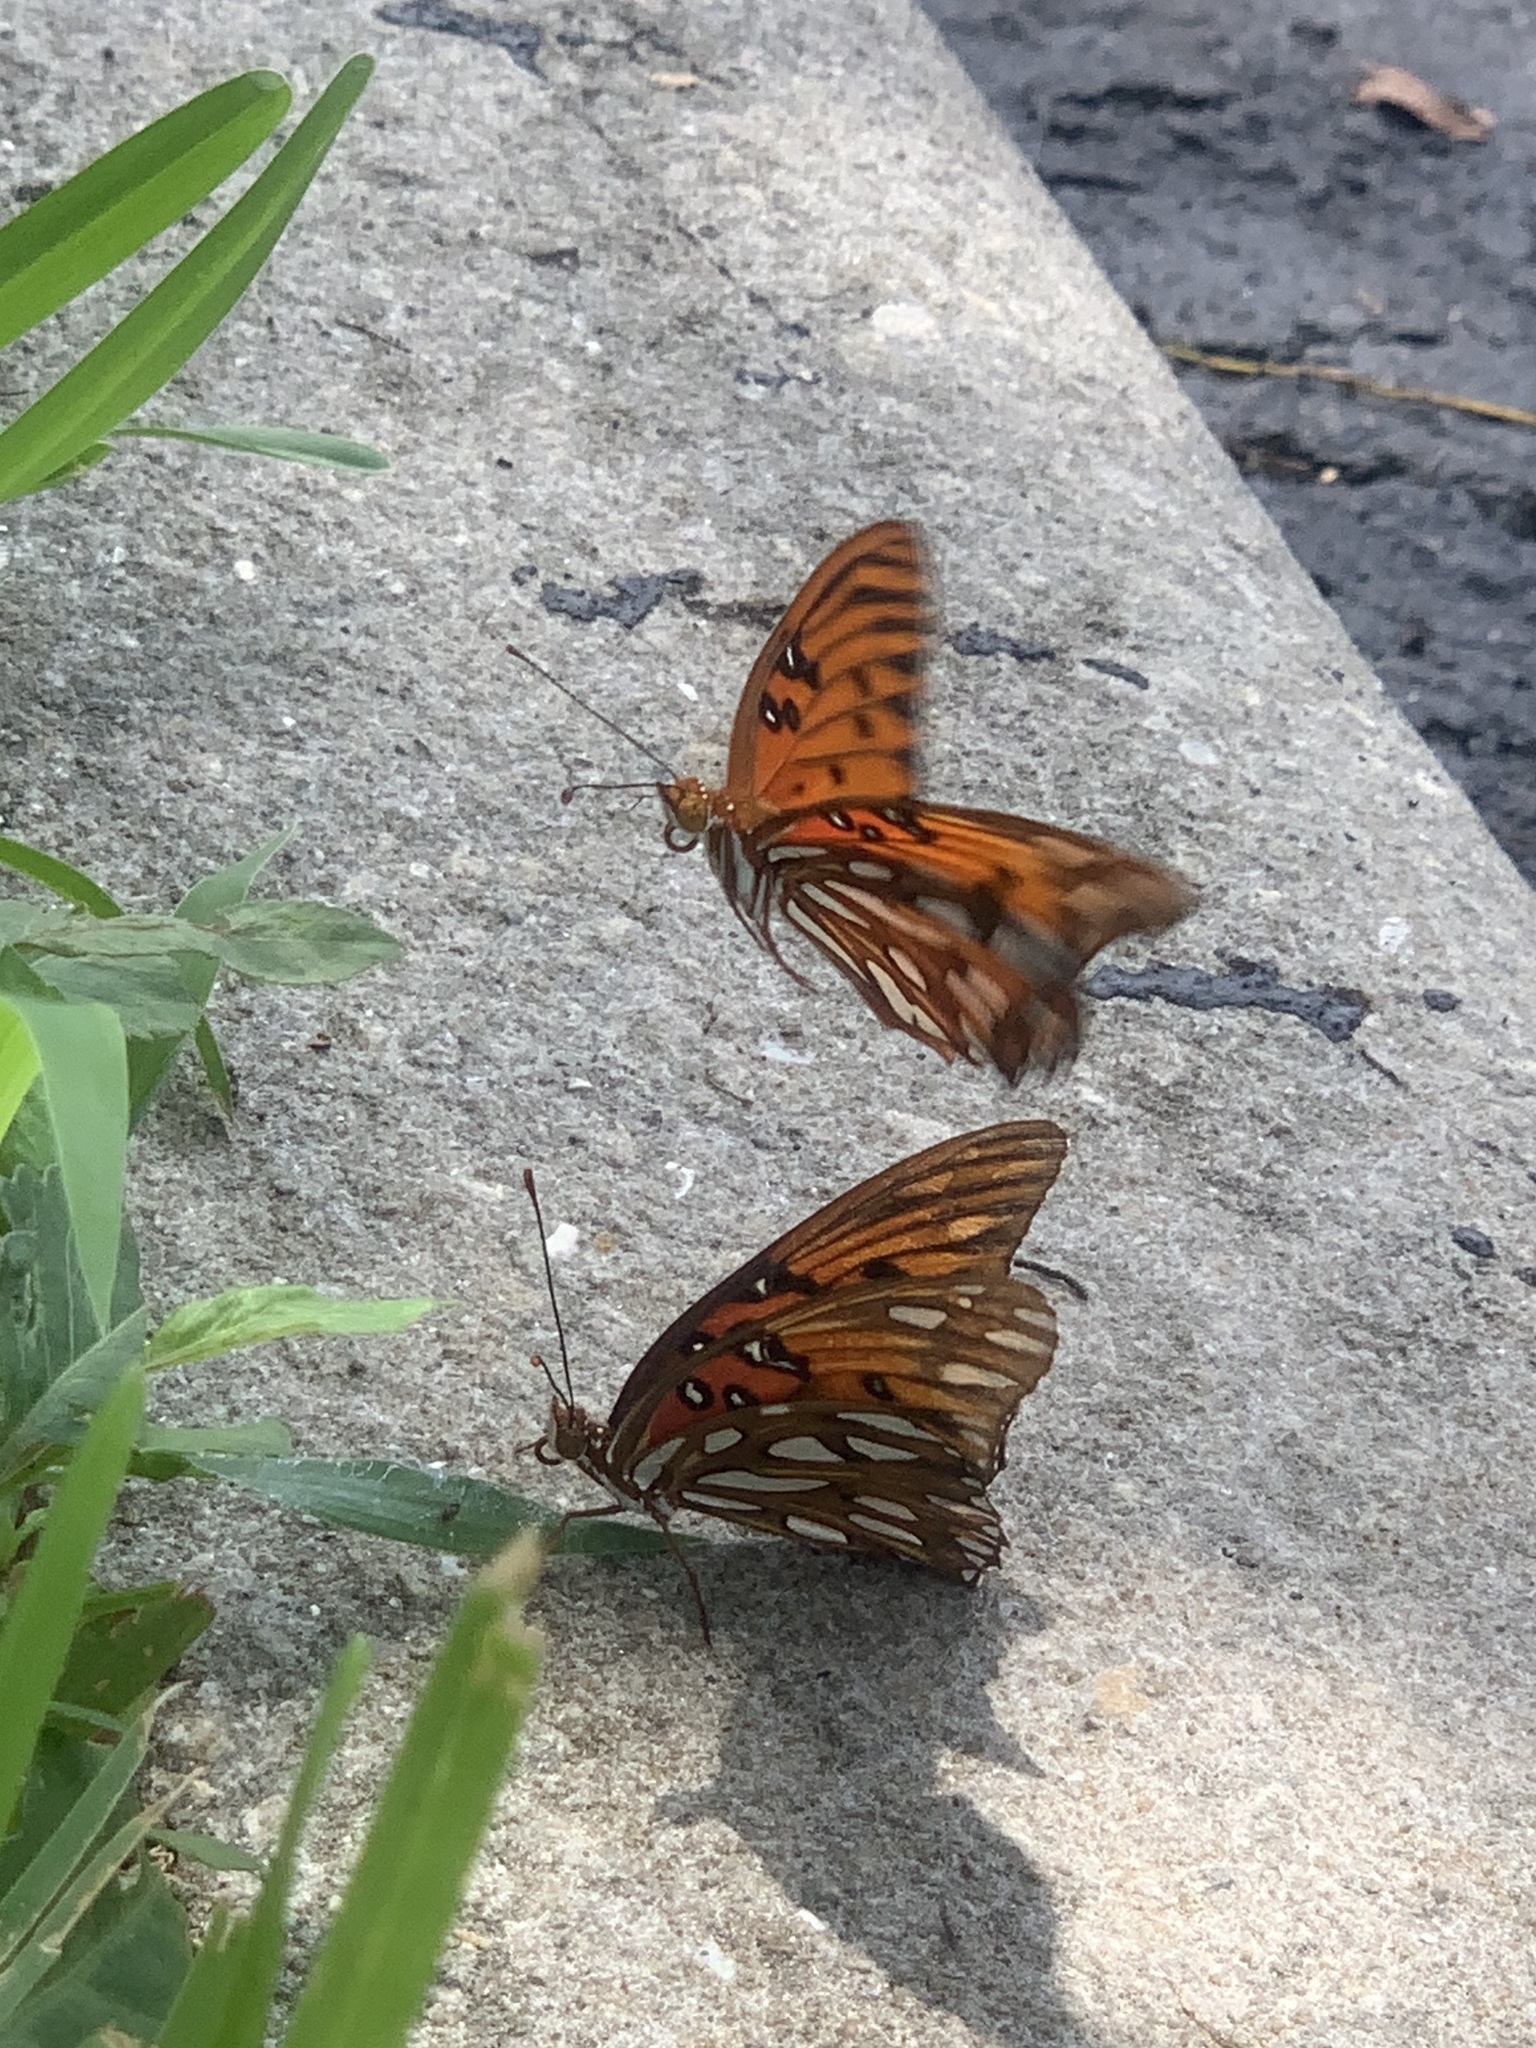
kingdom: Animalia
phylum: Arthropoda
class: Insecta
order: Lepidoptera
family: Nymphalidae
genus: Dione
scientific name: Dione vanillae
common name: Gulf fritillary
